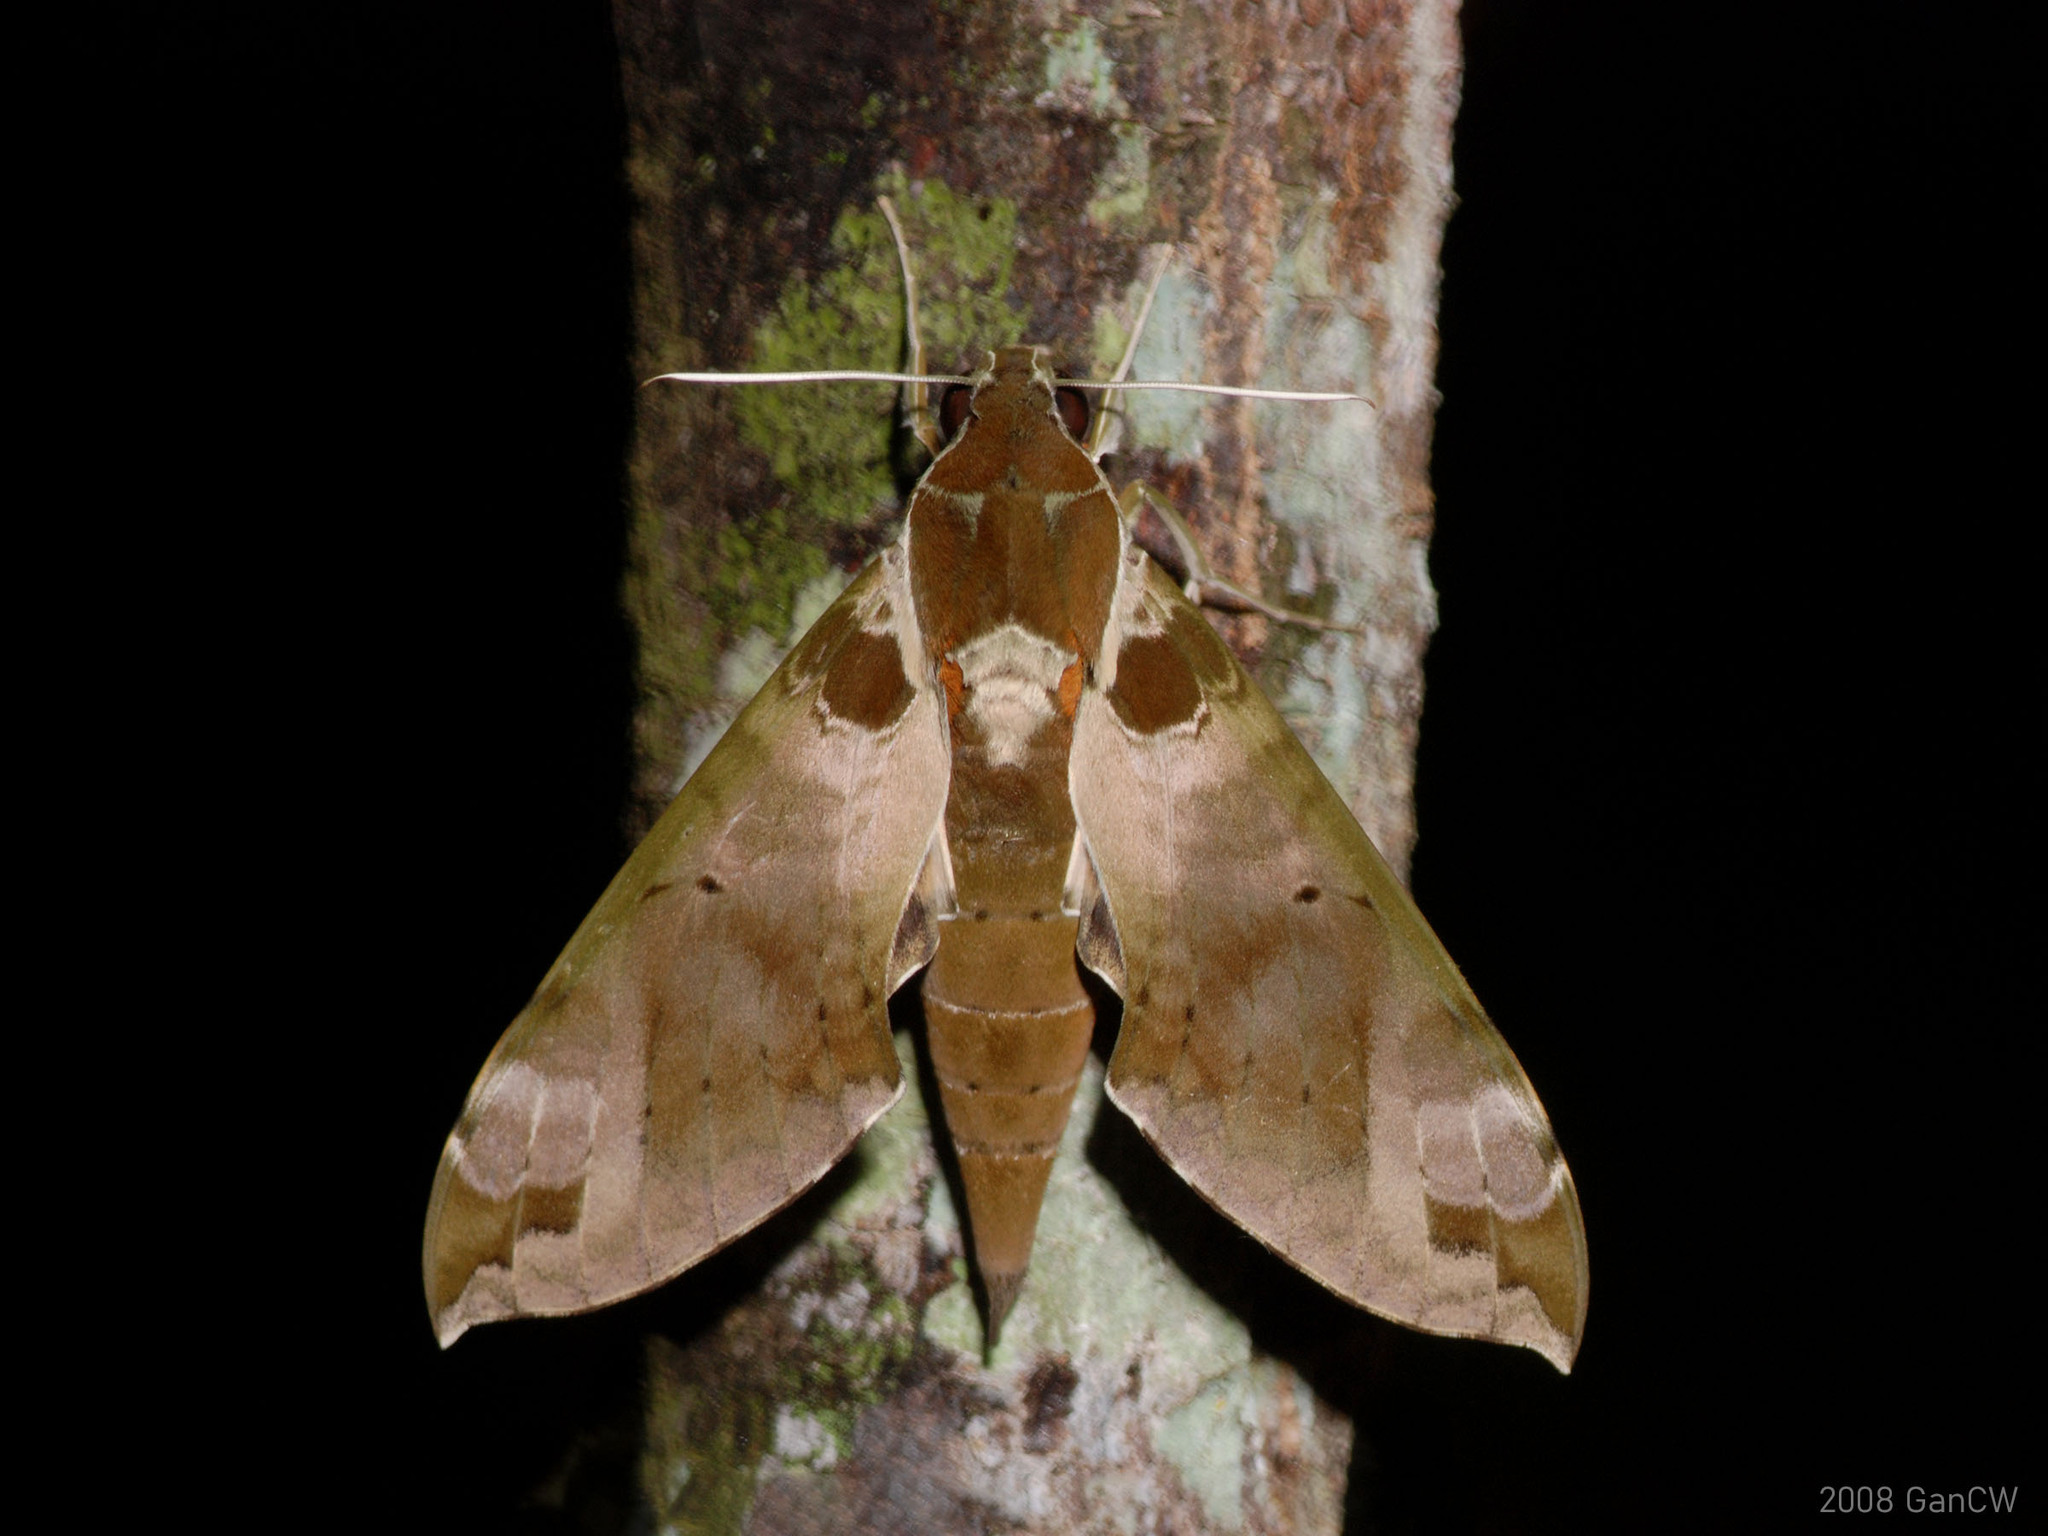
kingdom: Animalia
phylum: Arthropoda
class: Insecta
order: Lepidoptera
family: Sphingidae
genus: Cechenena
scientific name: Cechenena helops
